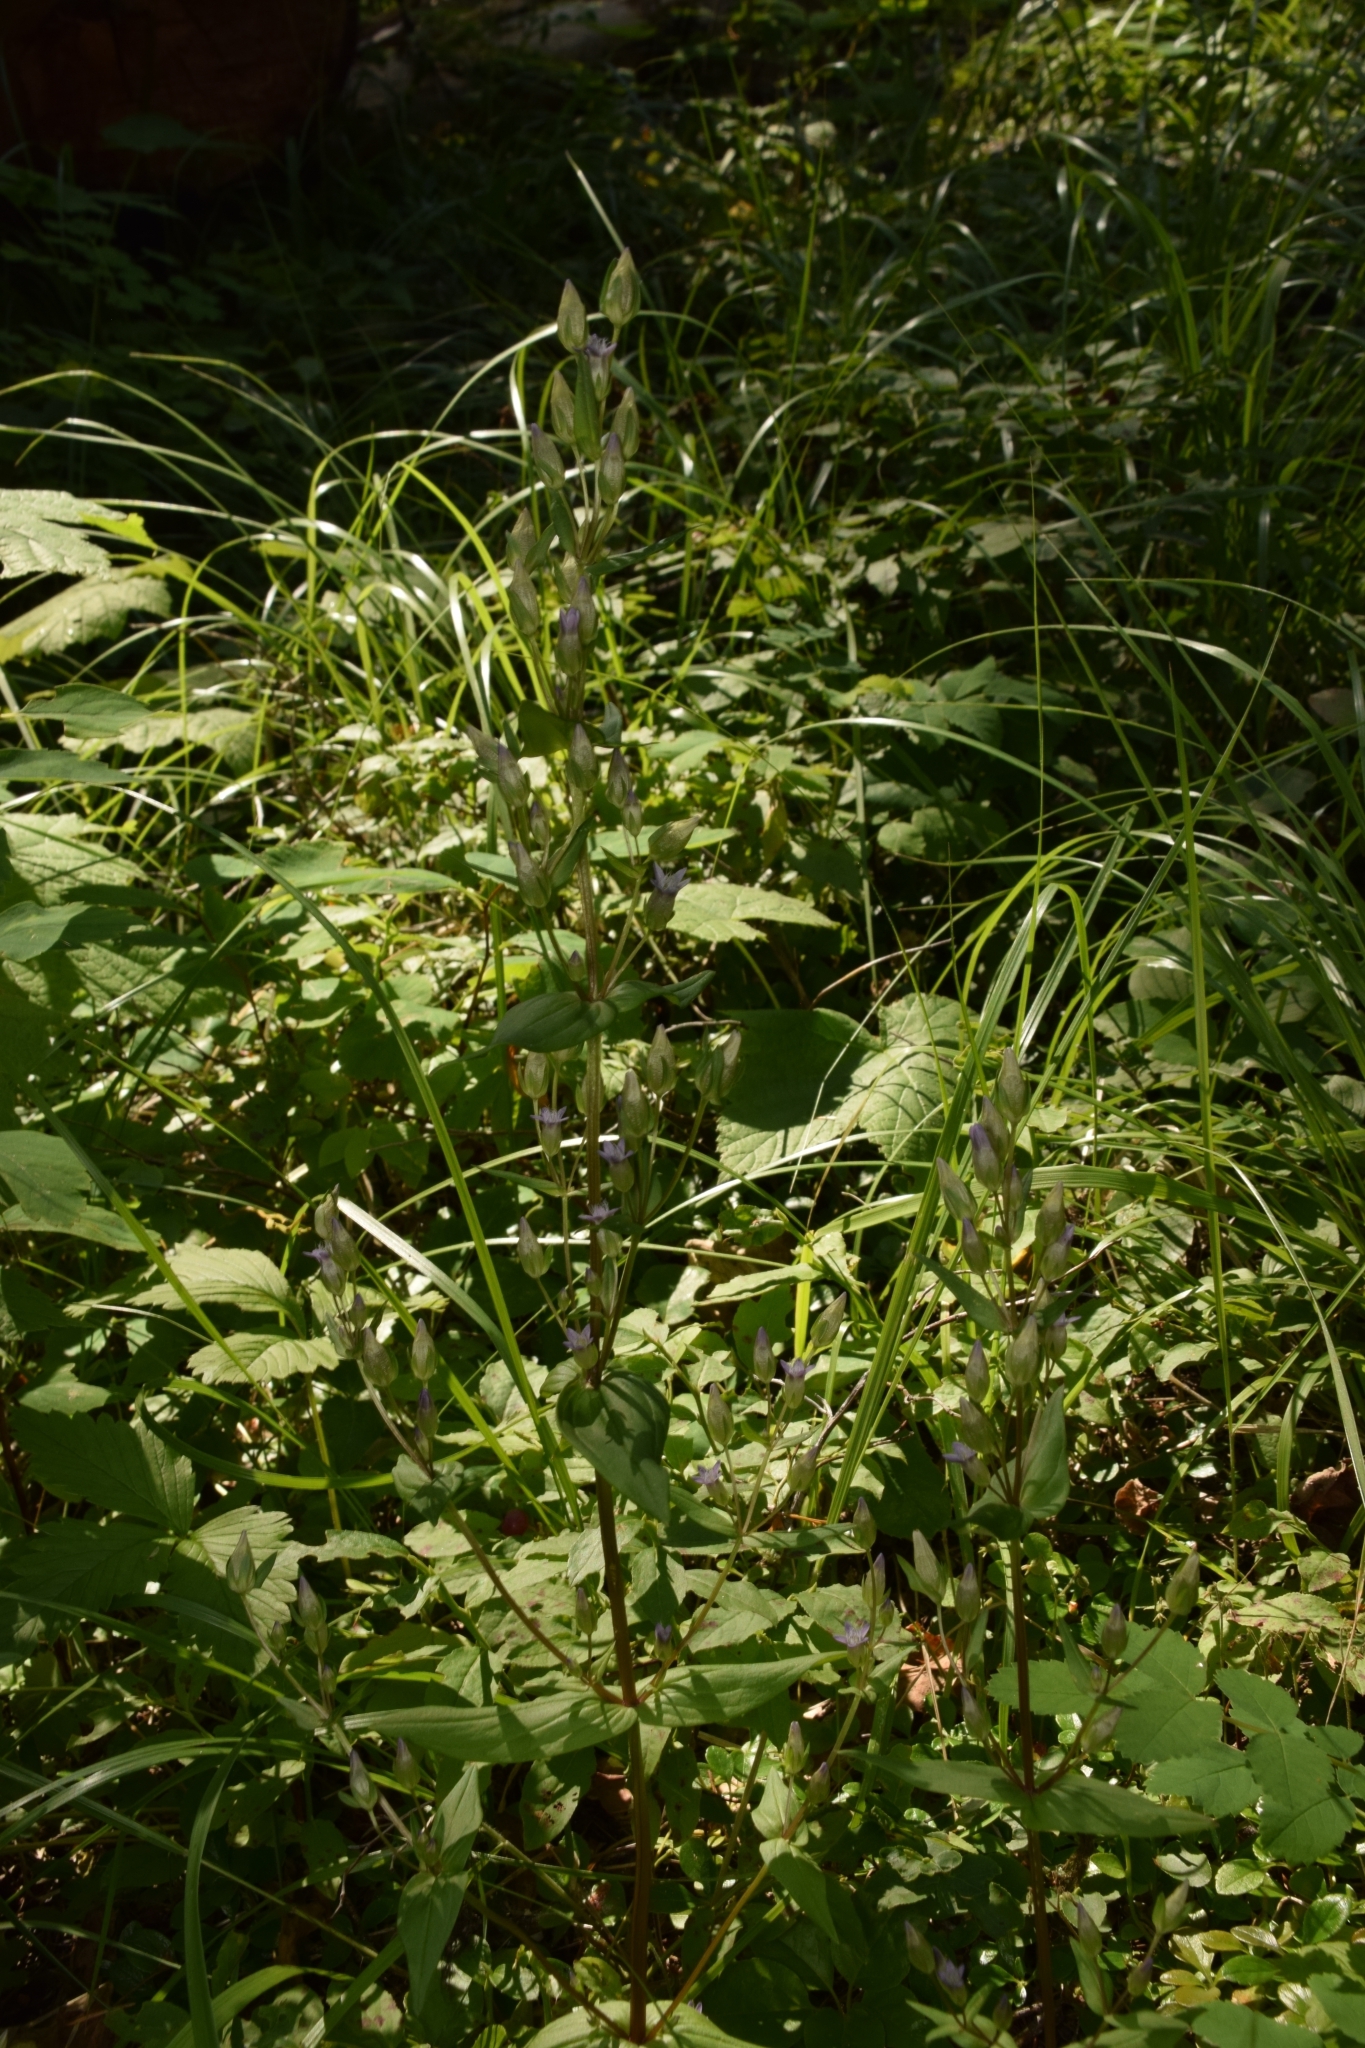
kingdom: Plantae
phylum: Tracheophyta
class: Magnoliopsida
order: Gentianales
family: Gentianaceae
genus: Gentianella
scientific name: Gentianella amarella
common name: Autumn gentian
